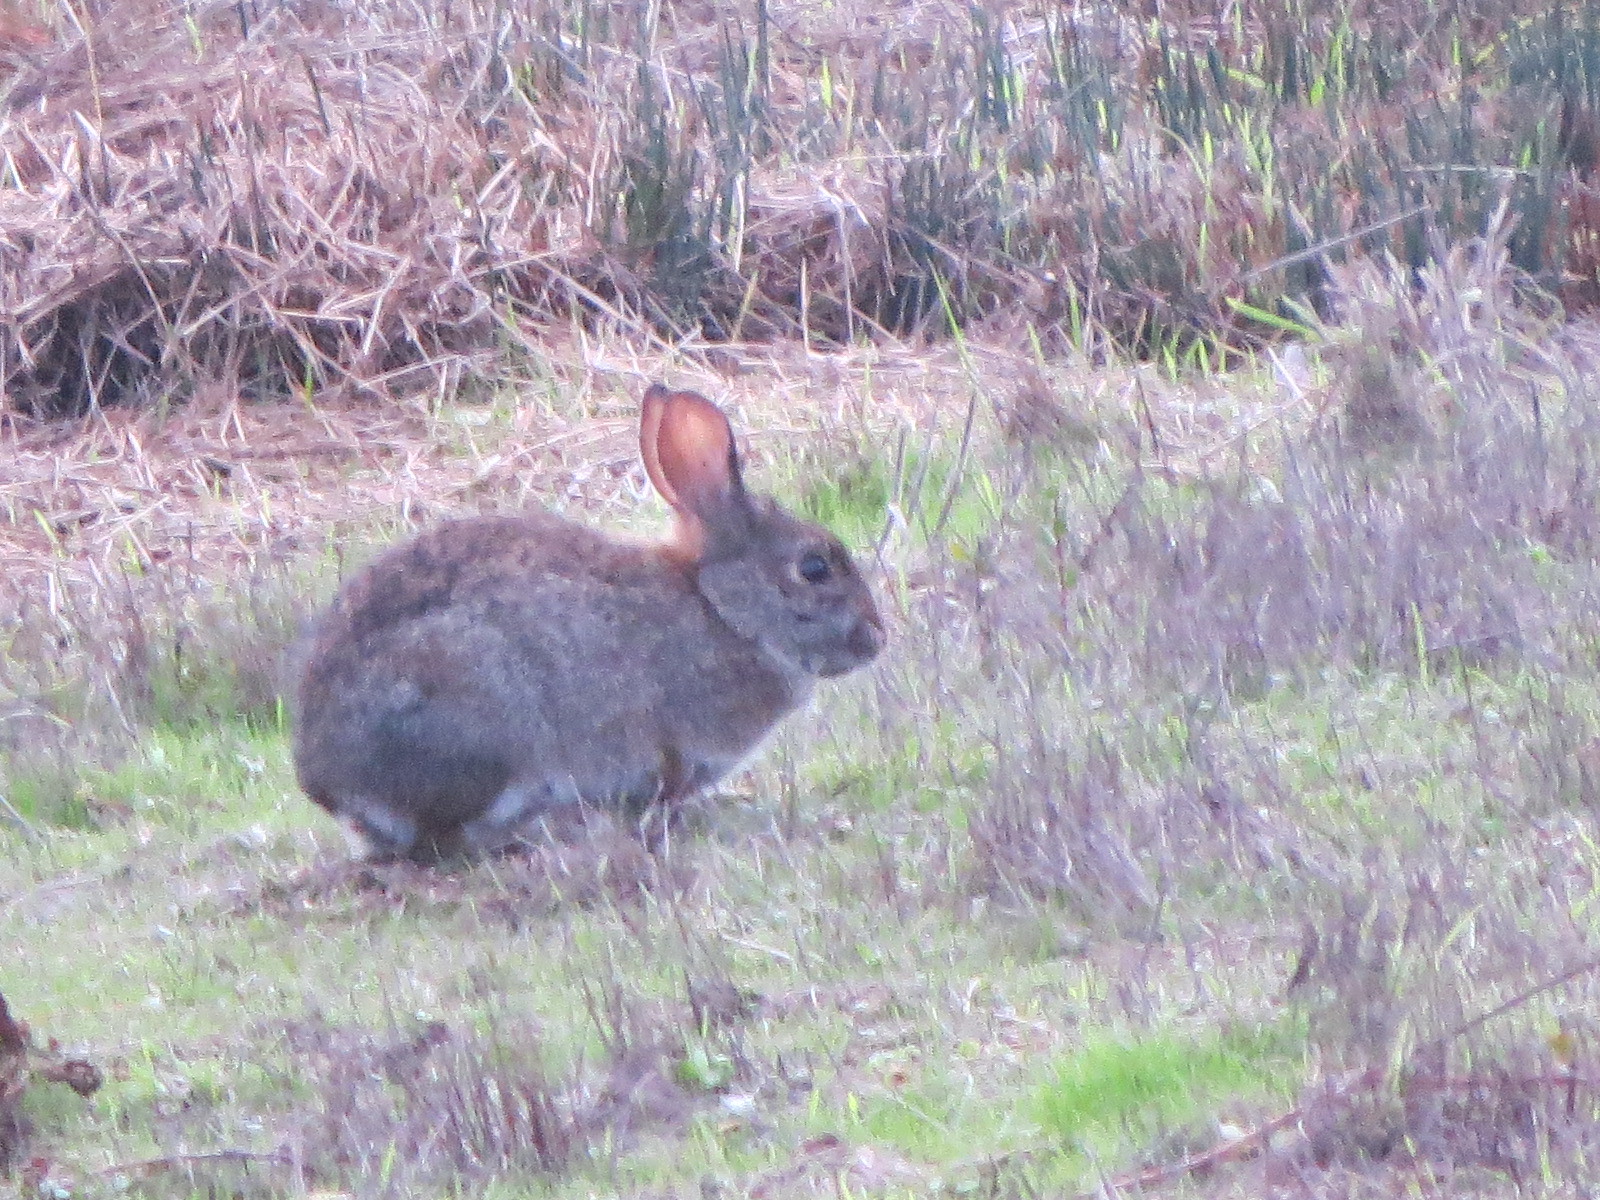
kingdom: Animalia
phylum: Chordata
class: Mammalia
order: Lagomorpha
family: Leporidae
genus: Sylvilagus
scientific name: Sylvilagus bachmani
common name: Brush rabbit
